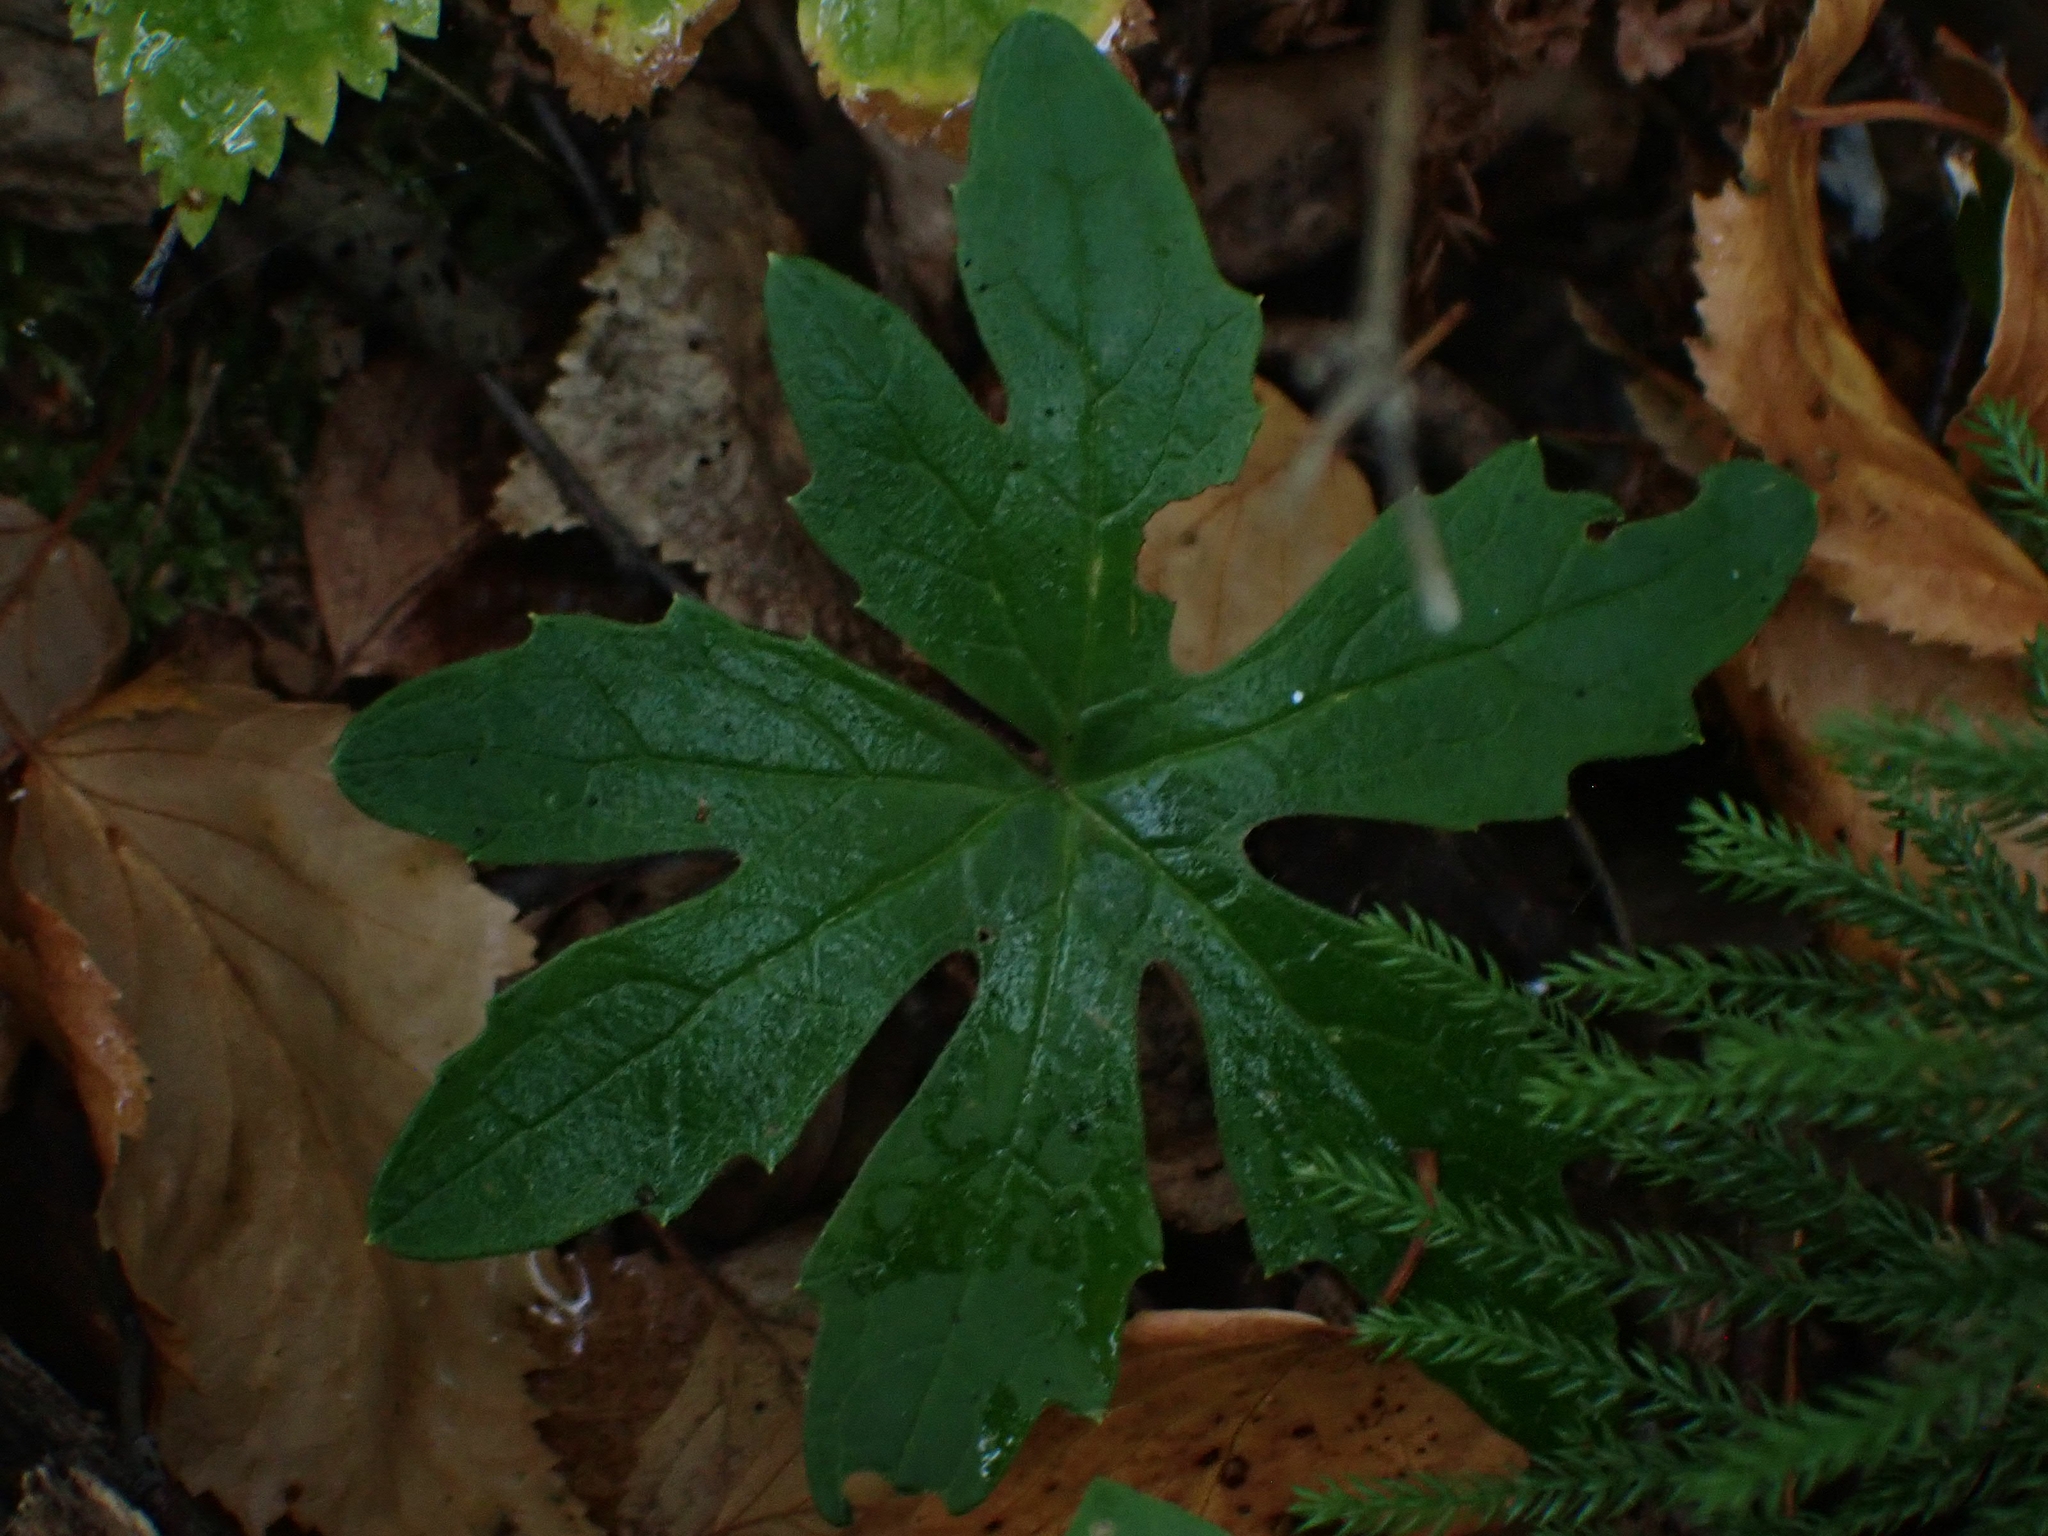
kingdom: Plantae
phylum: Tracheophyta
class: Magnoliopsida
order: Asterales
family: Asteraceae
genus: Petasites
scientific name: Petasites frigidus
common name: Arctic butterbur
